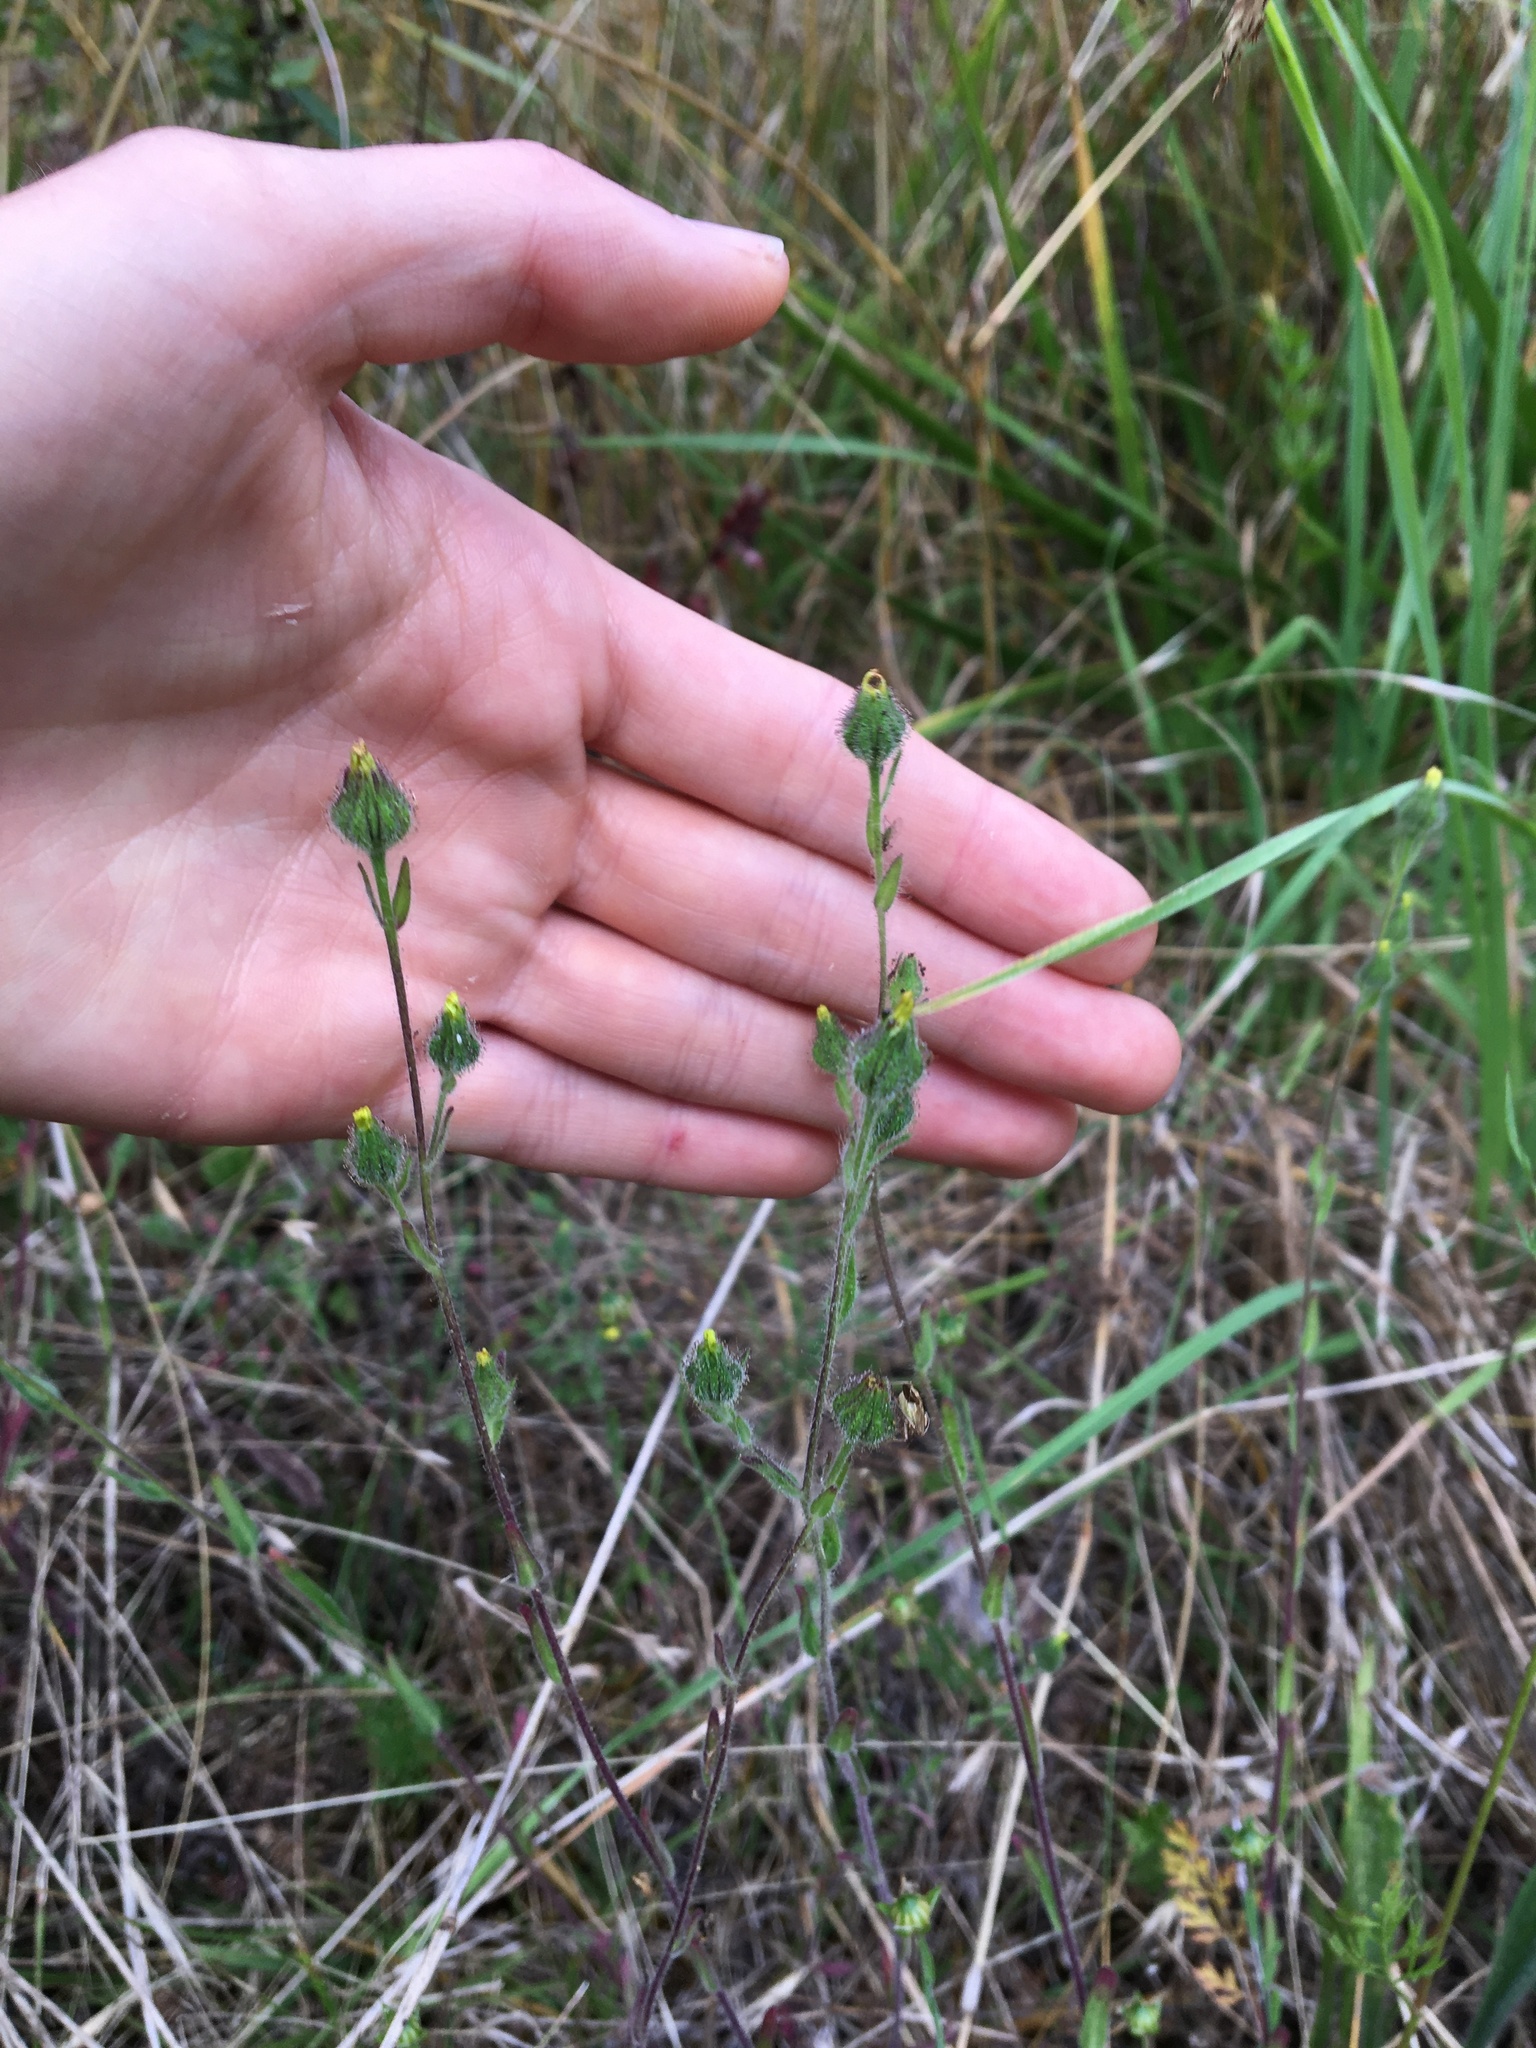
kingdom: Plantae
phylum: Tracheophyta
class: Magnoliopsida
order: Asterales
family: Asteraceae
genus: Madia
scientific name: Madia gracilis
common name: Grassy tarweed
